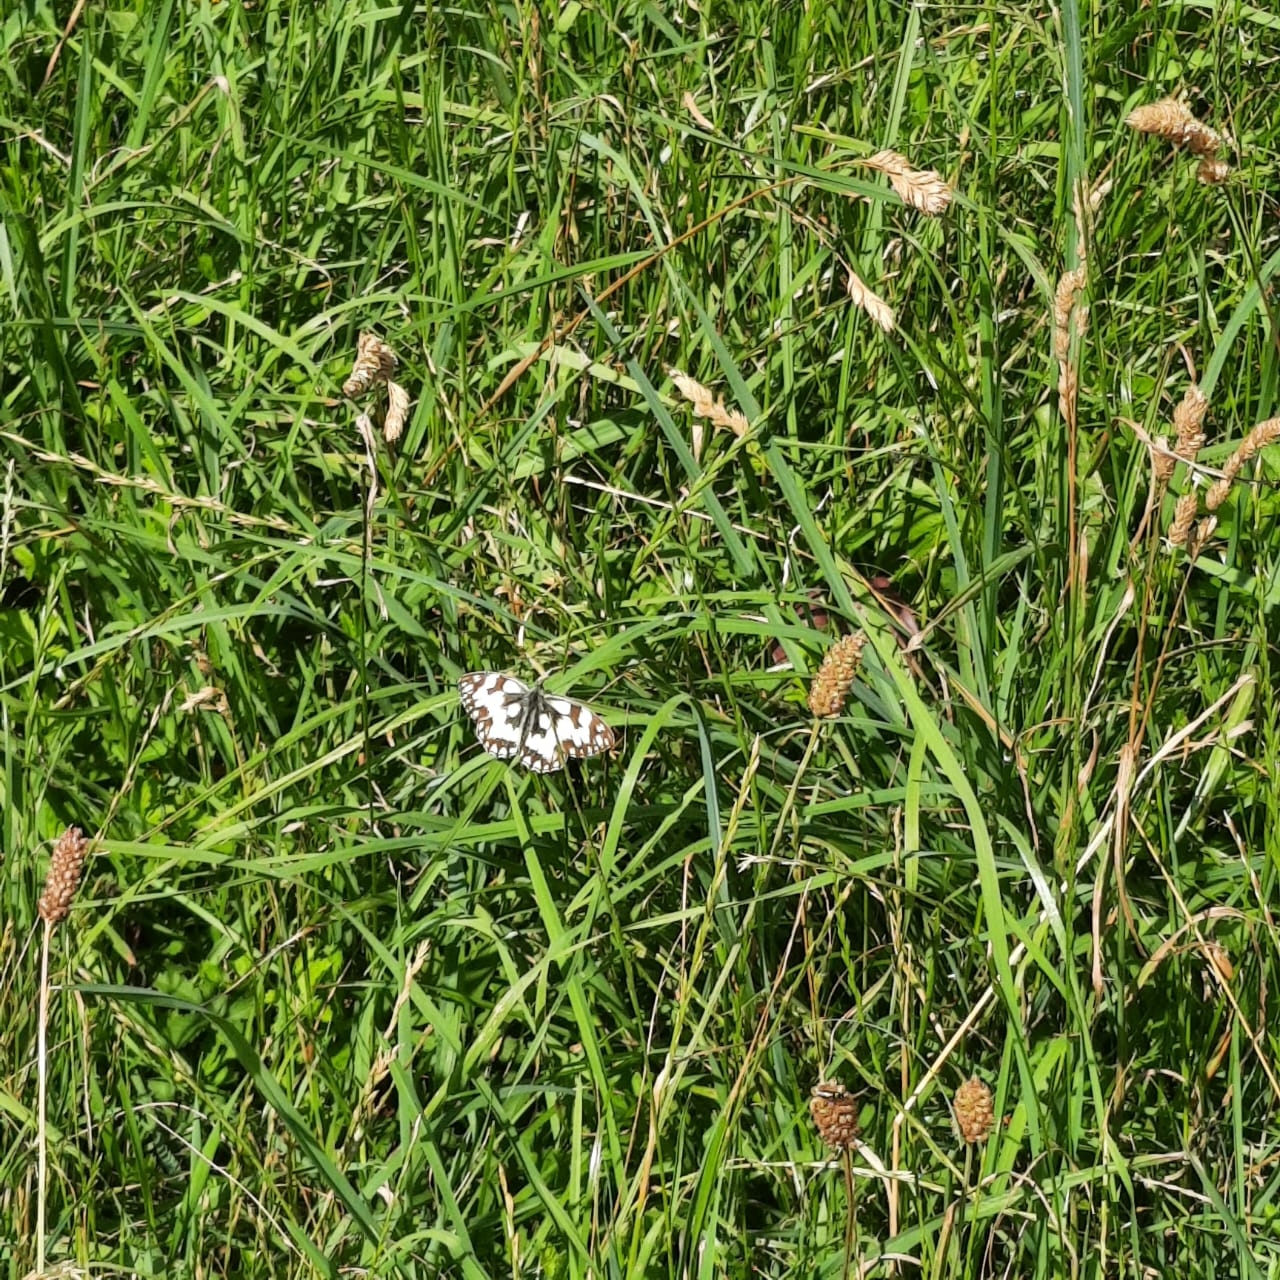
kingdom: Animalia
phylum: Arthropoda
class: Insecta
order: Lepidoptera
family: Nymphalidae
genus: Melanargia
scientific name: Melanargia galathea
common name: Marbled white
